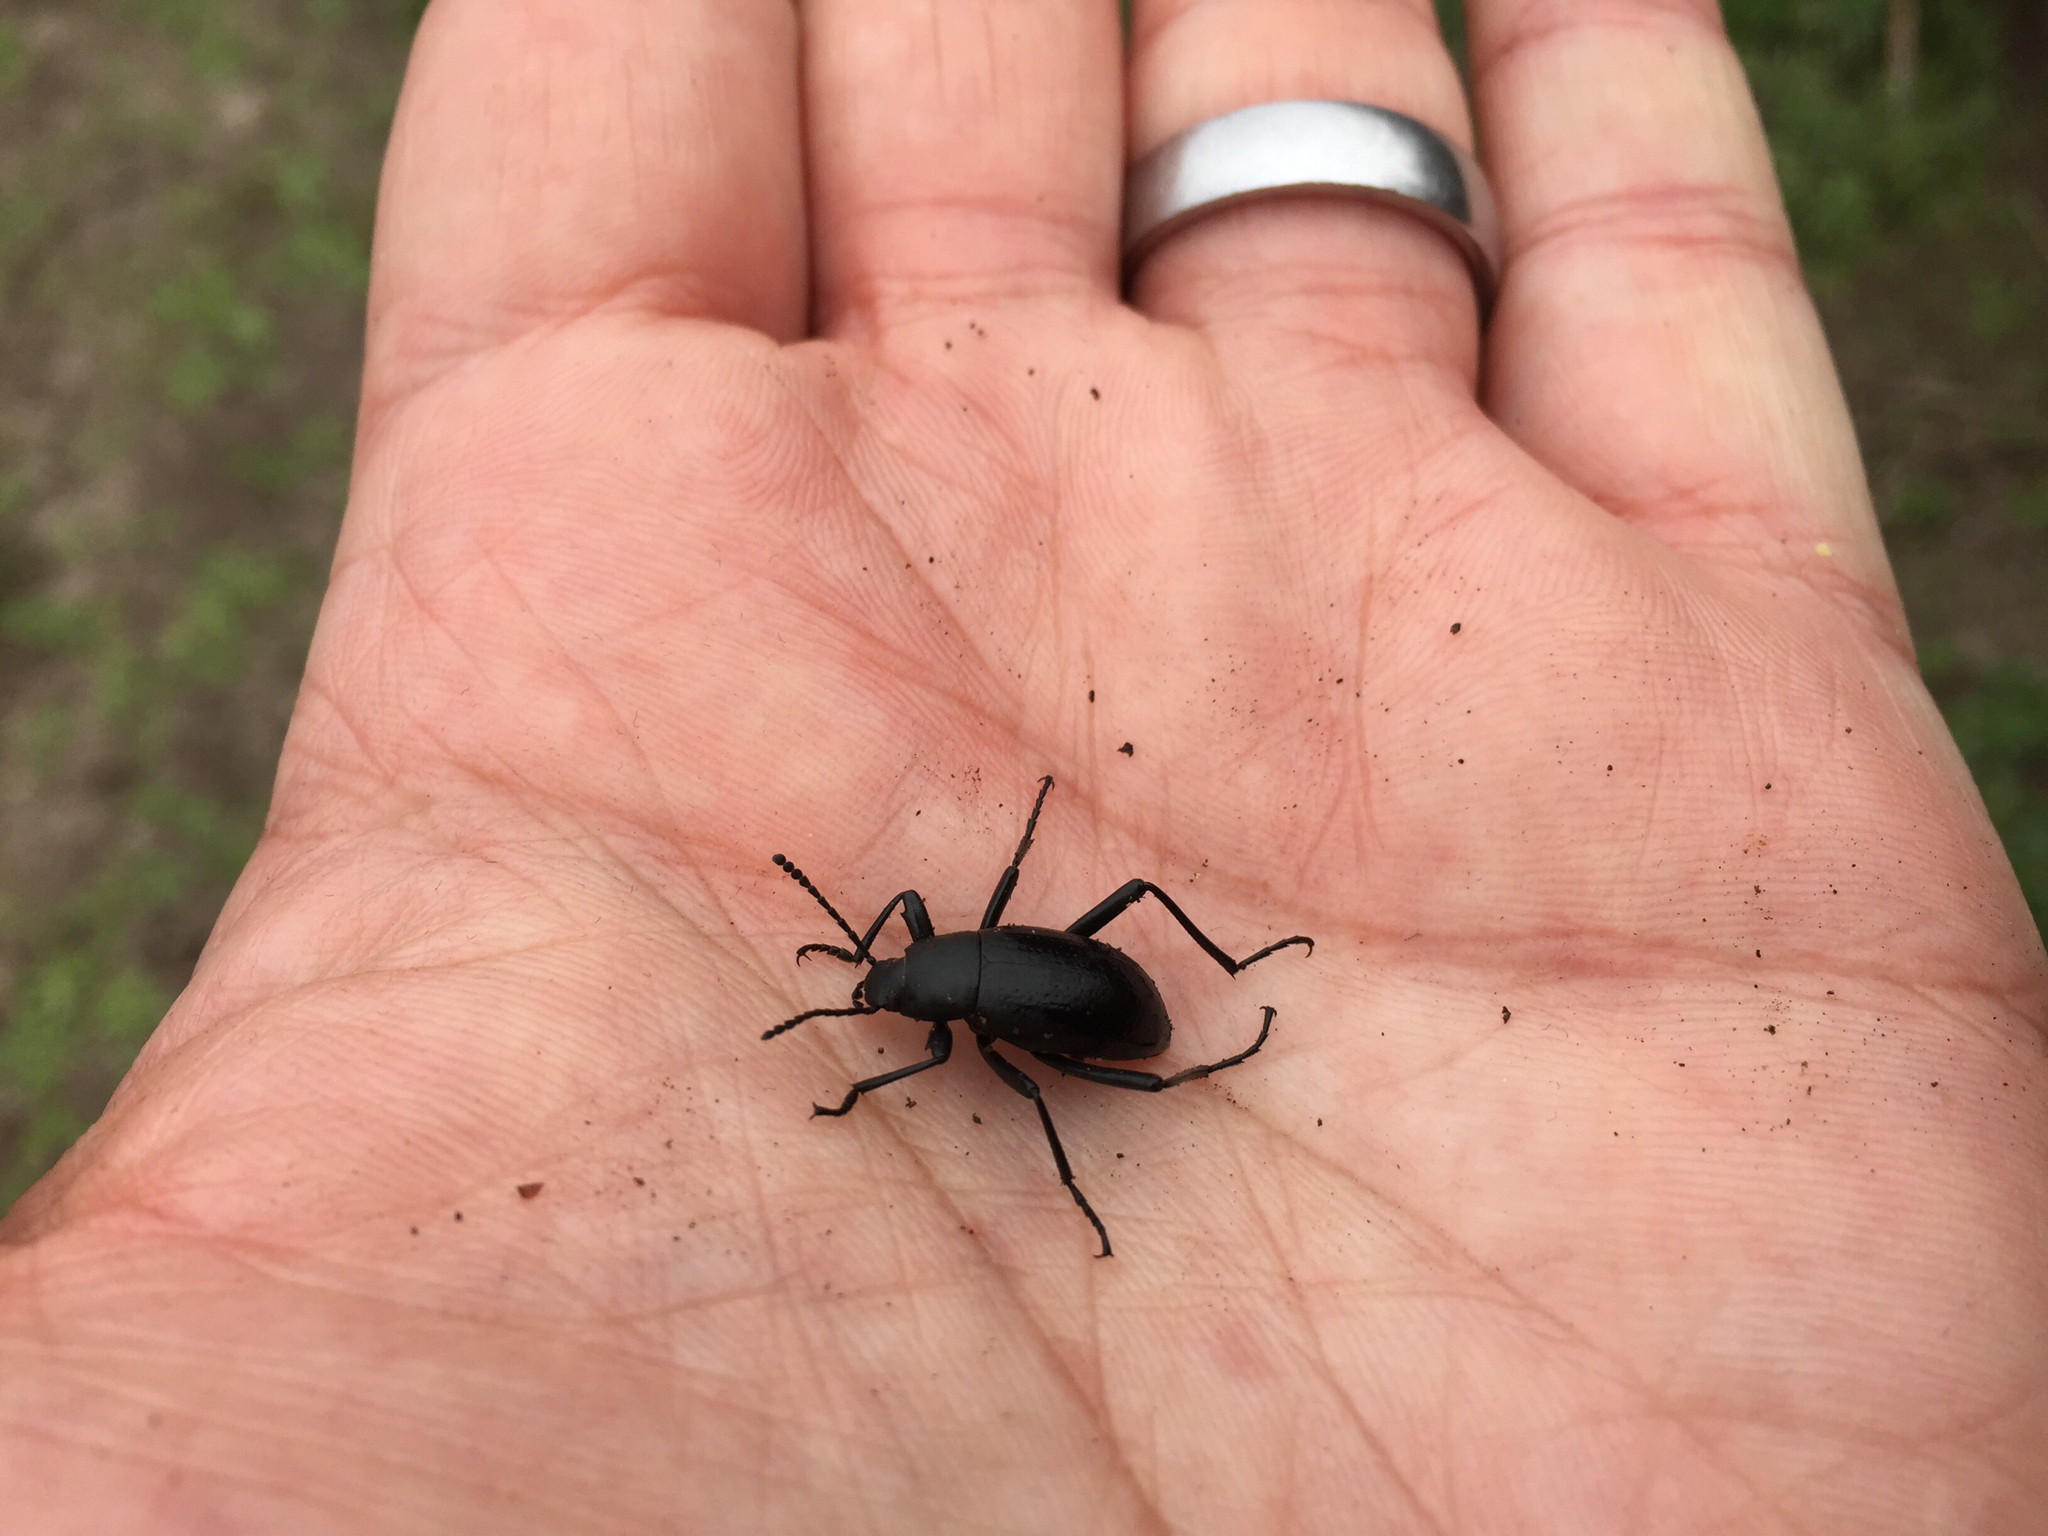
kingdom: Animalia
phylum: Arthropoda
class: Insecta
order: Coleoptera
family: Tenebrionidae
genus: Eleodes
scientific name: Eleodes goryi
